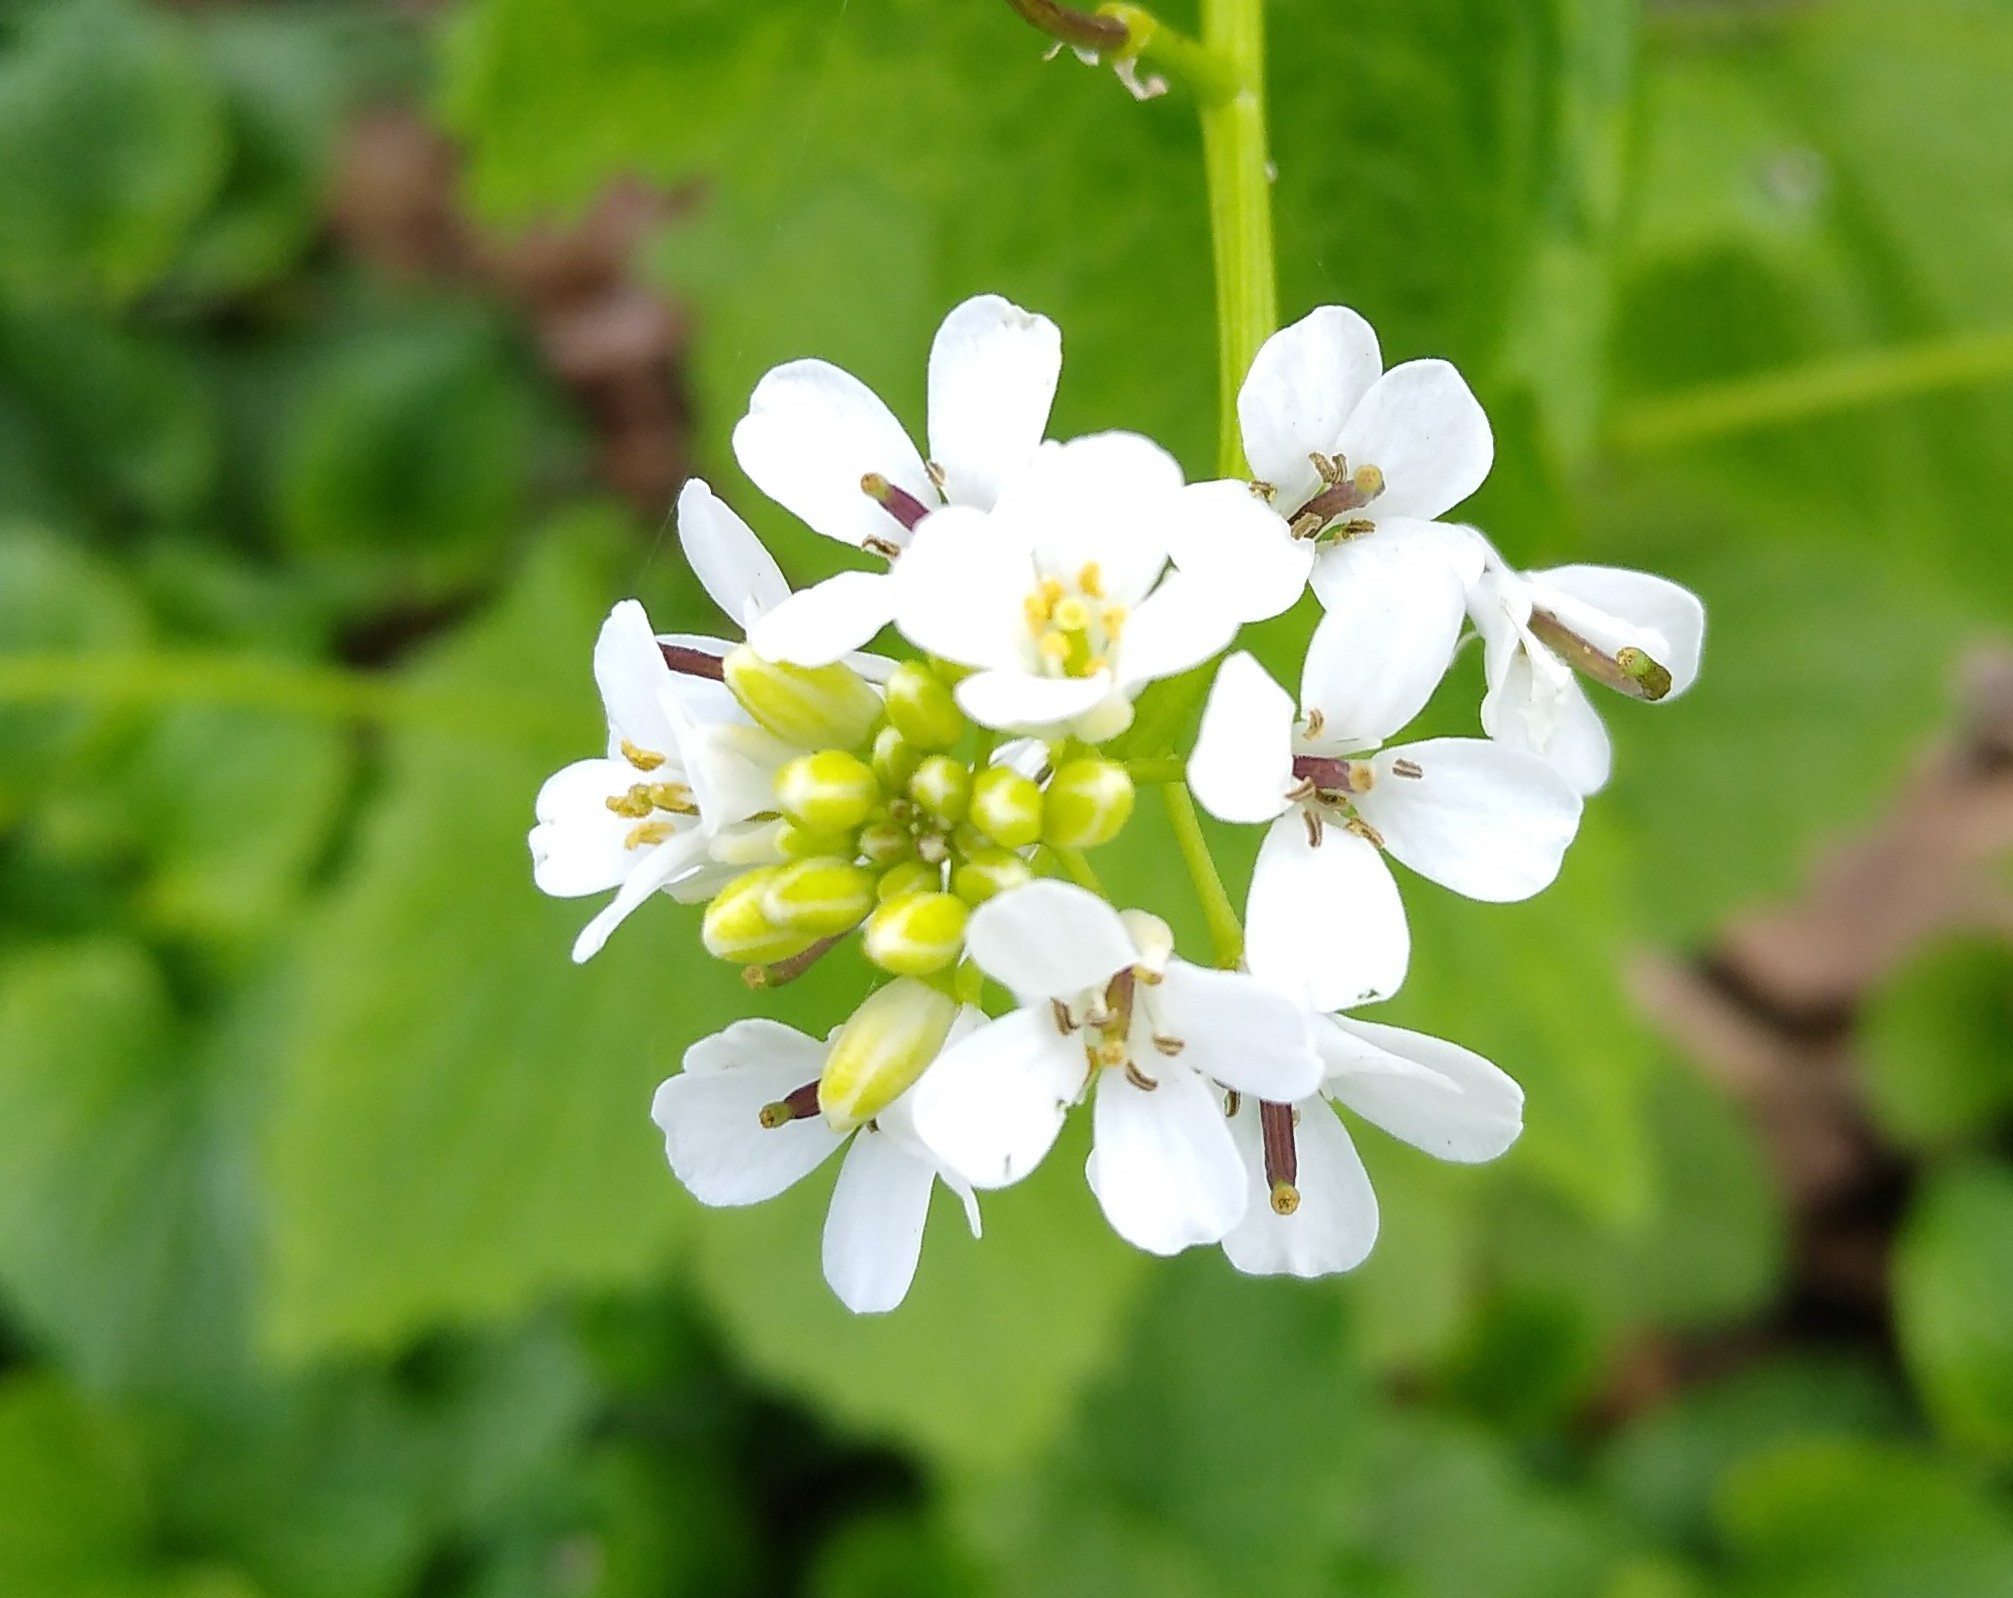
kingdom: Plantae
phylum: Tracheophyta
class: Magnoliopsida
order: Brassicales
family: Brassicaceae
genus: Alliaria
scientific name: Alliaria petiolata
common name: Garlic mustard
